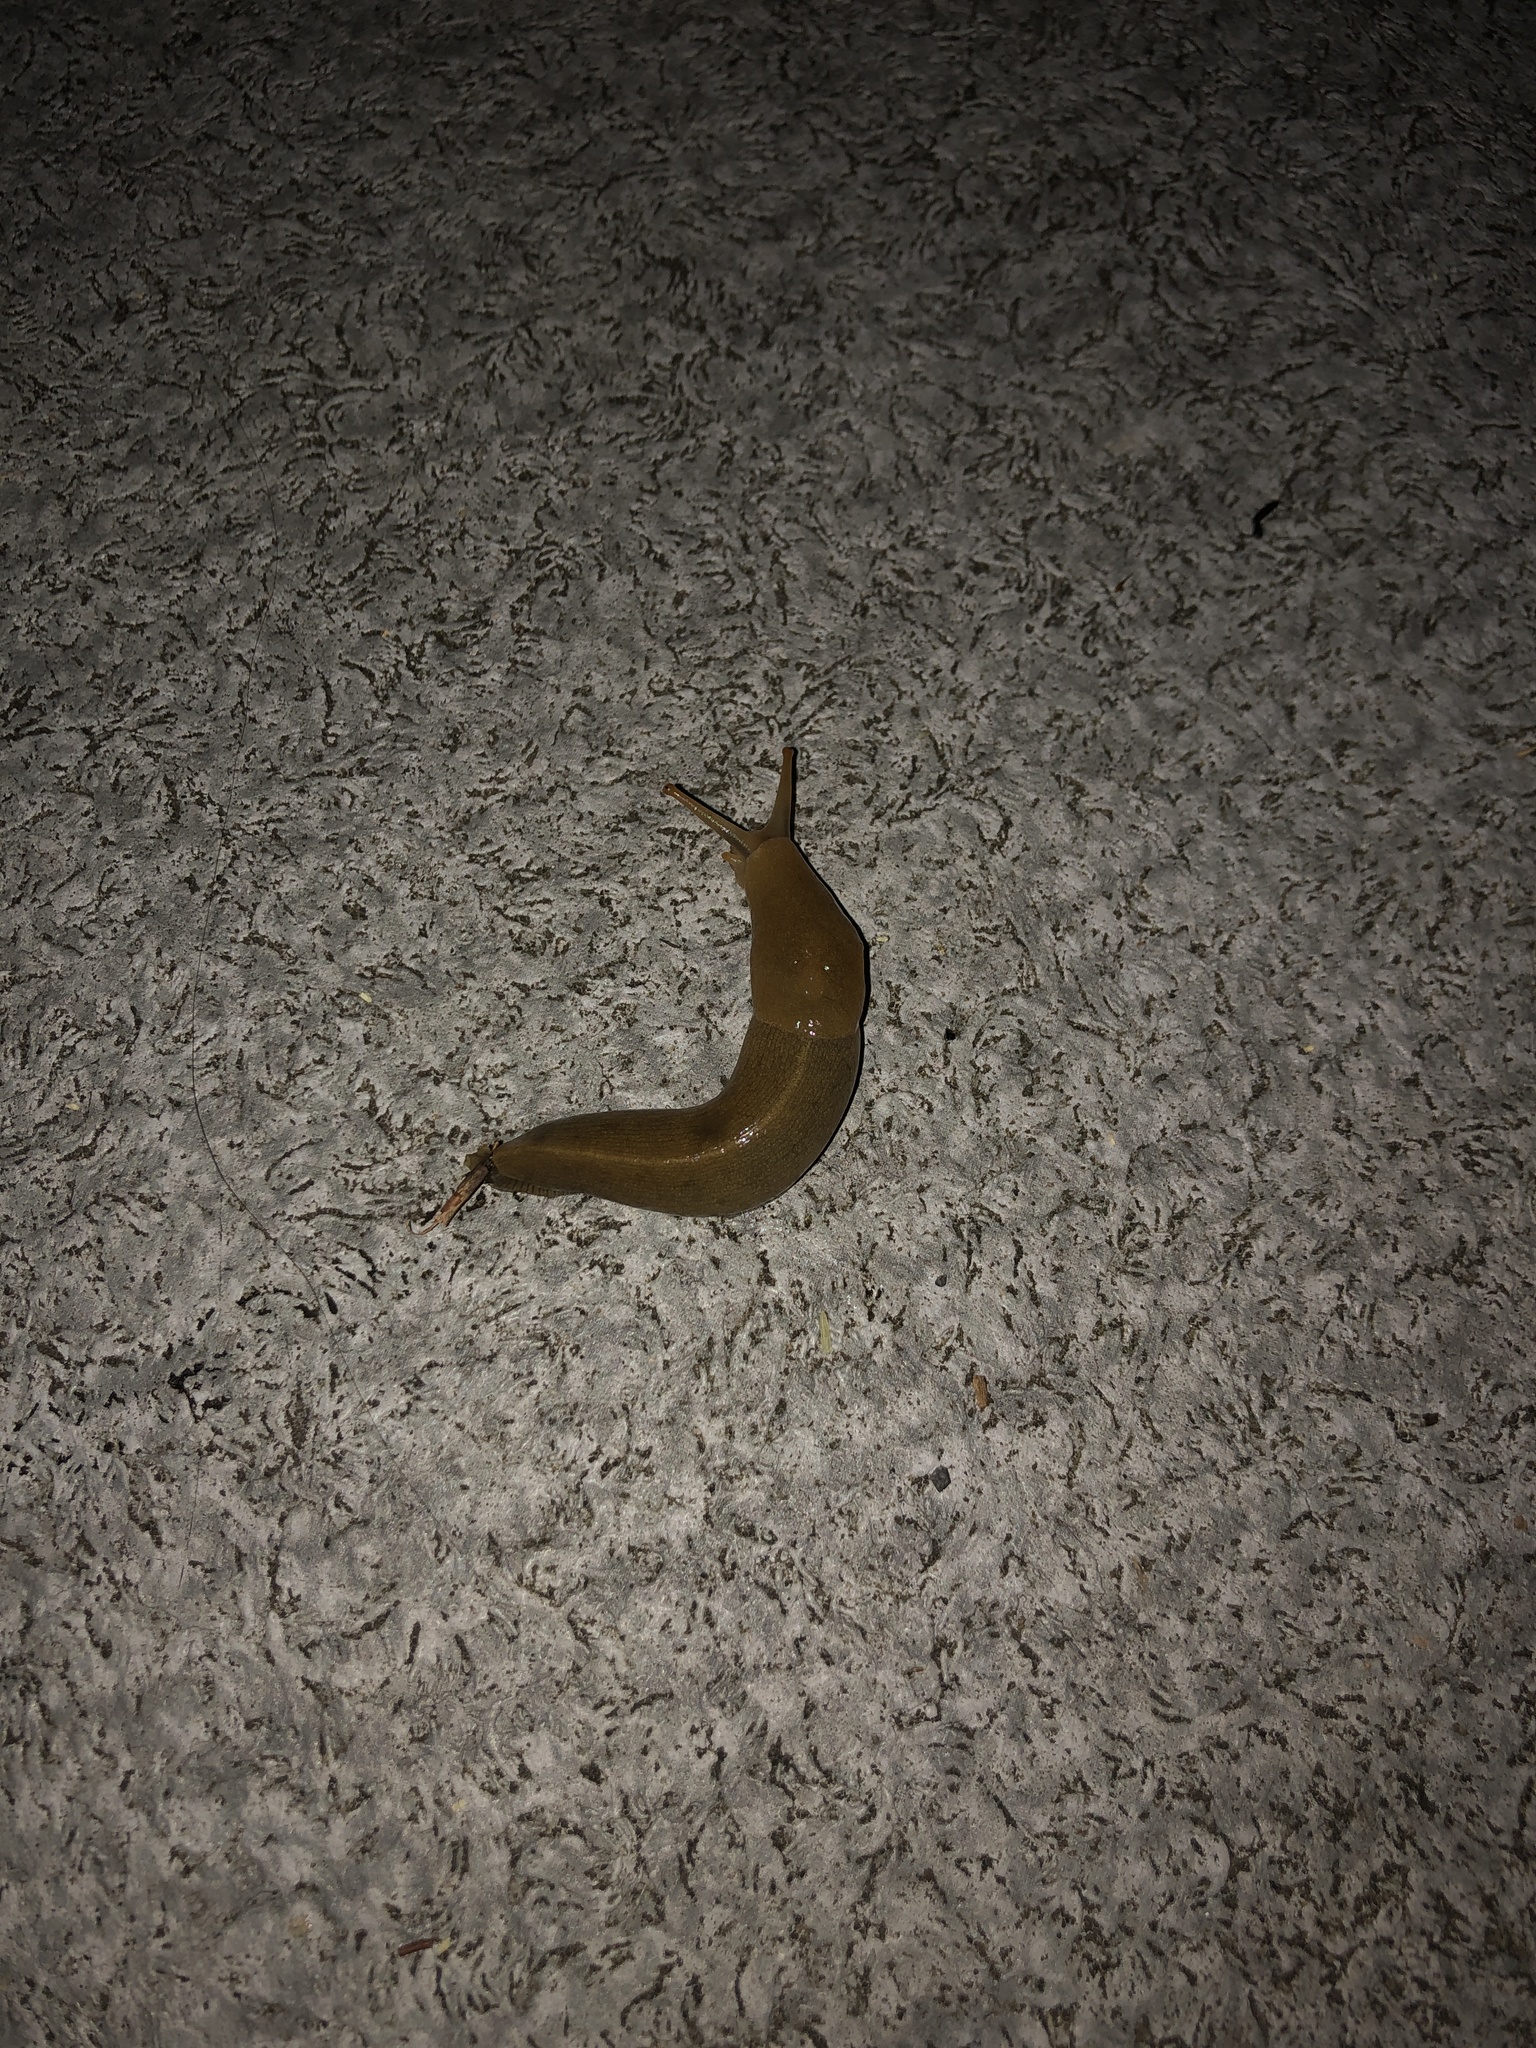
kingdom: Animalia
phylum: Mollusca
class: Gastropoda
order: Stylommatophora
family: Ariolimacidae
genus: Ariolimax
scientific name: Ariolimax columbianus
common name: Pacific banana slug
